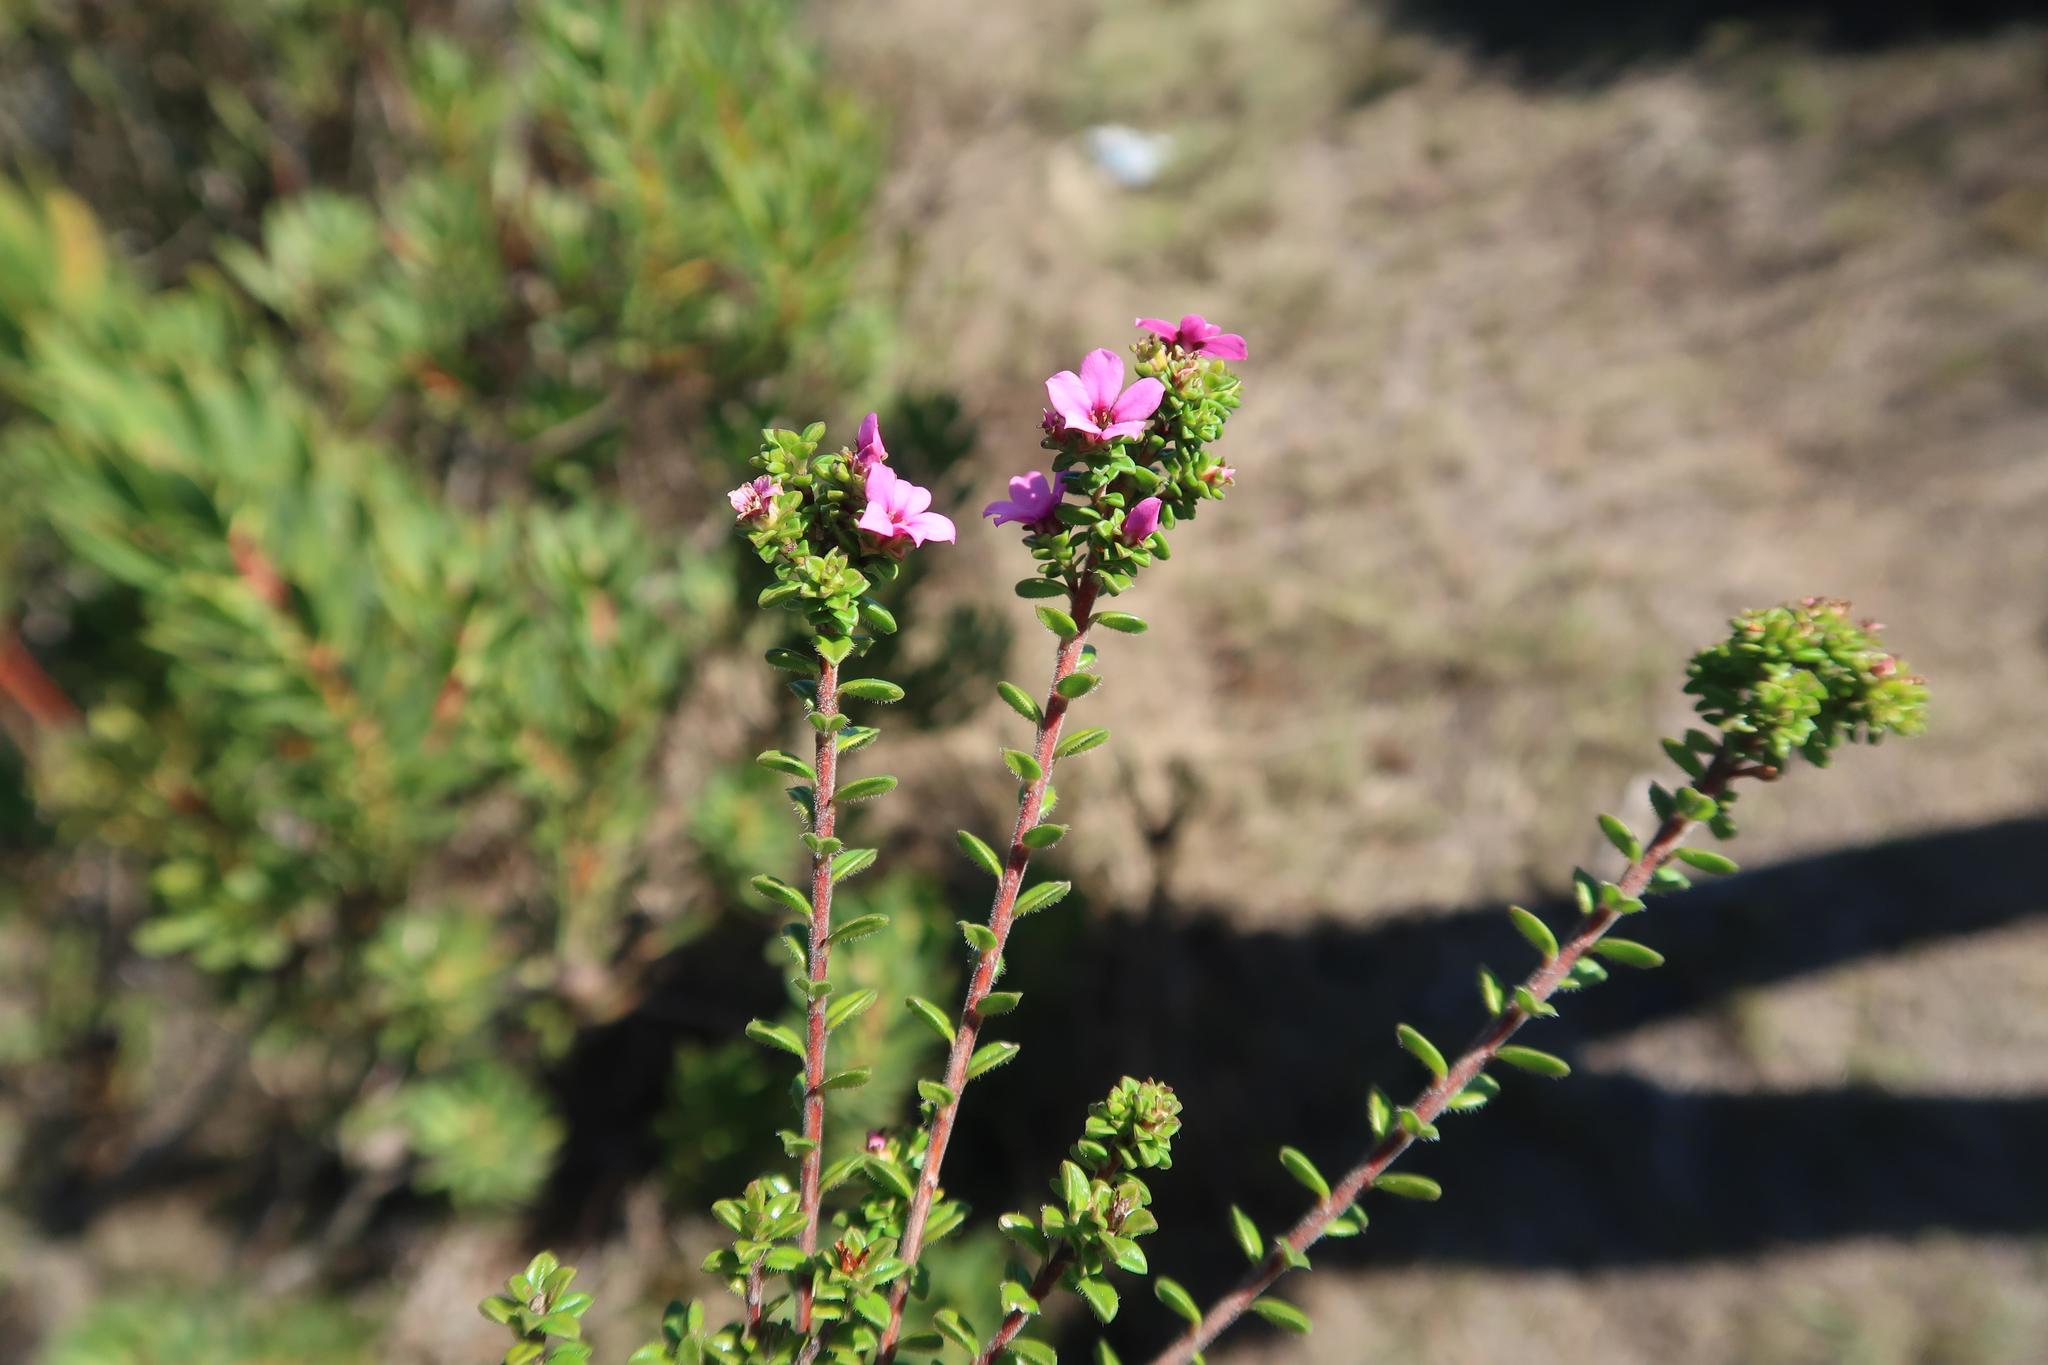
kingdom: Plantae
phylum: Tracheophyta
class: Magnoliopsida
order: Sapindales
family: Rutaceae
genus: Acmadenia
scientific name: Acmadenia heterophylla
